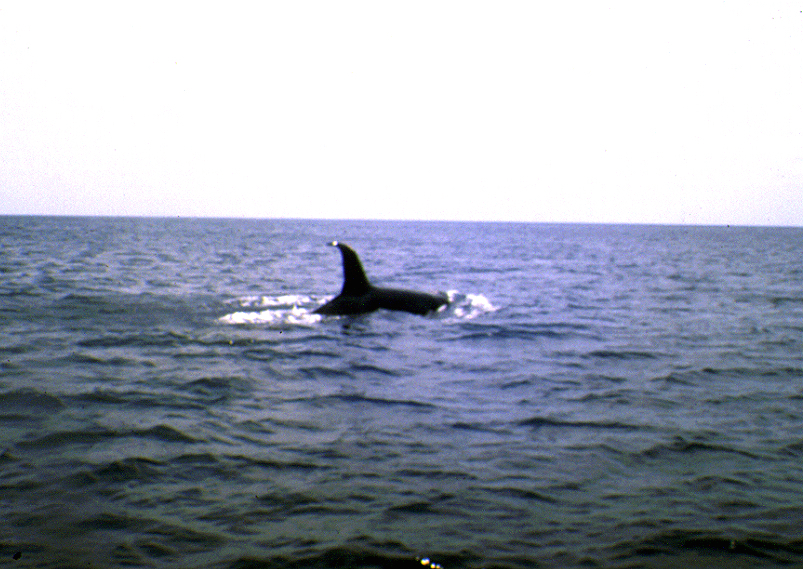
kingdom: Animalia
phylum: Chordata
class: Mammalia
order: Cetacea
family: Delphinidae
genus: Orcinus
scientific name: Orcinus orca
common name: Killer whale
